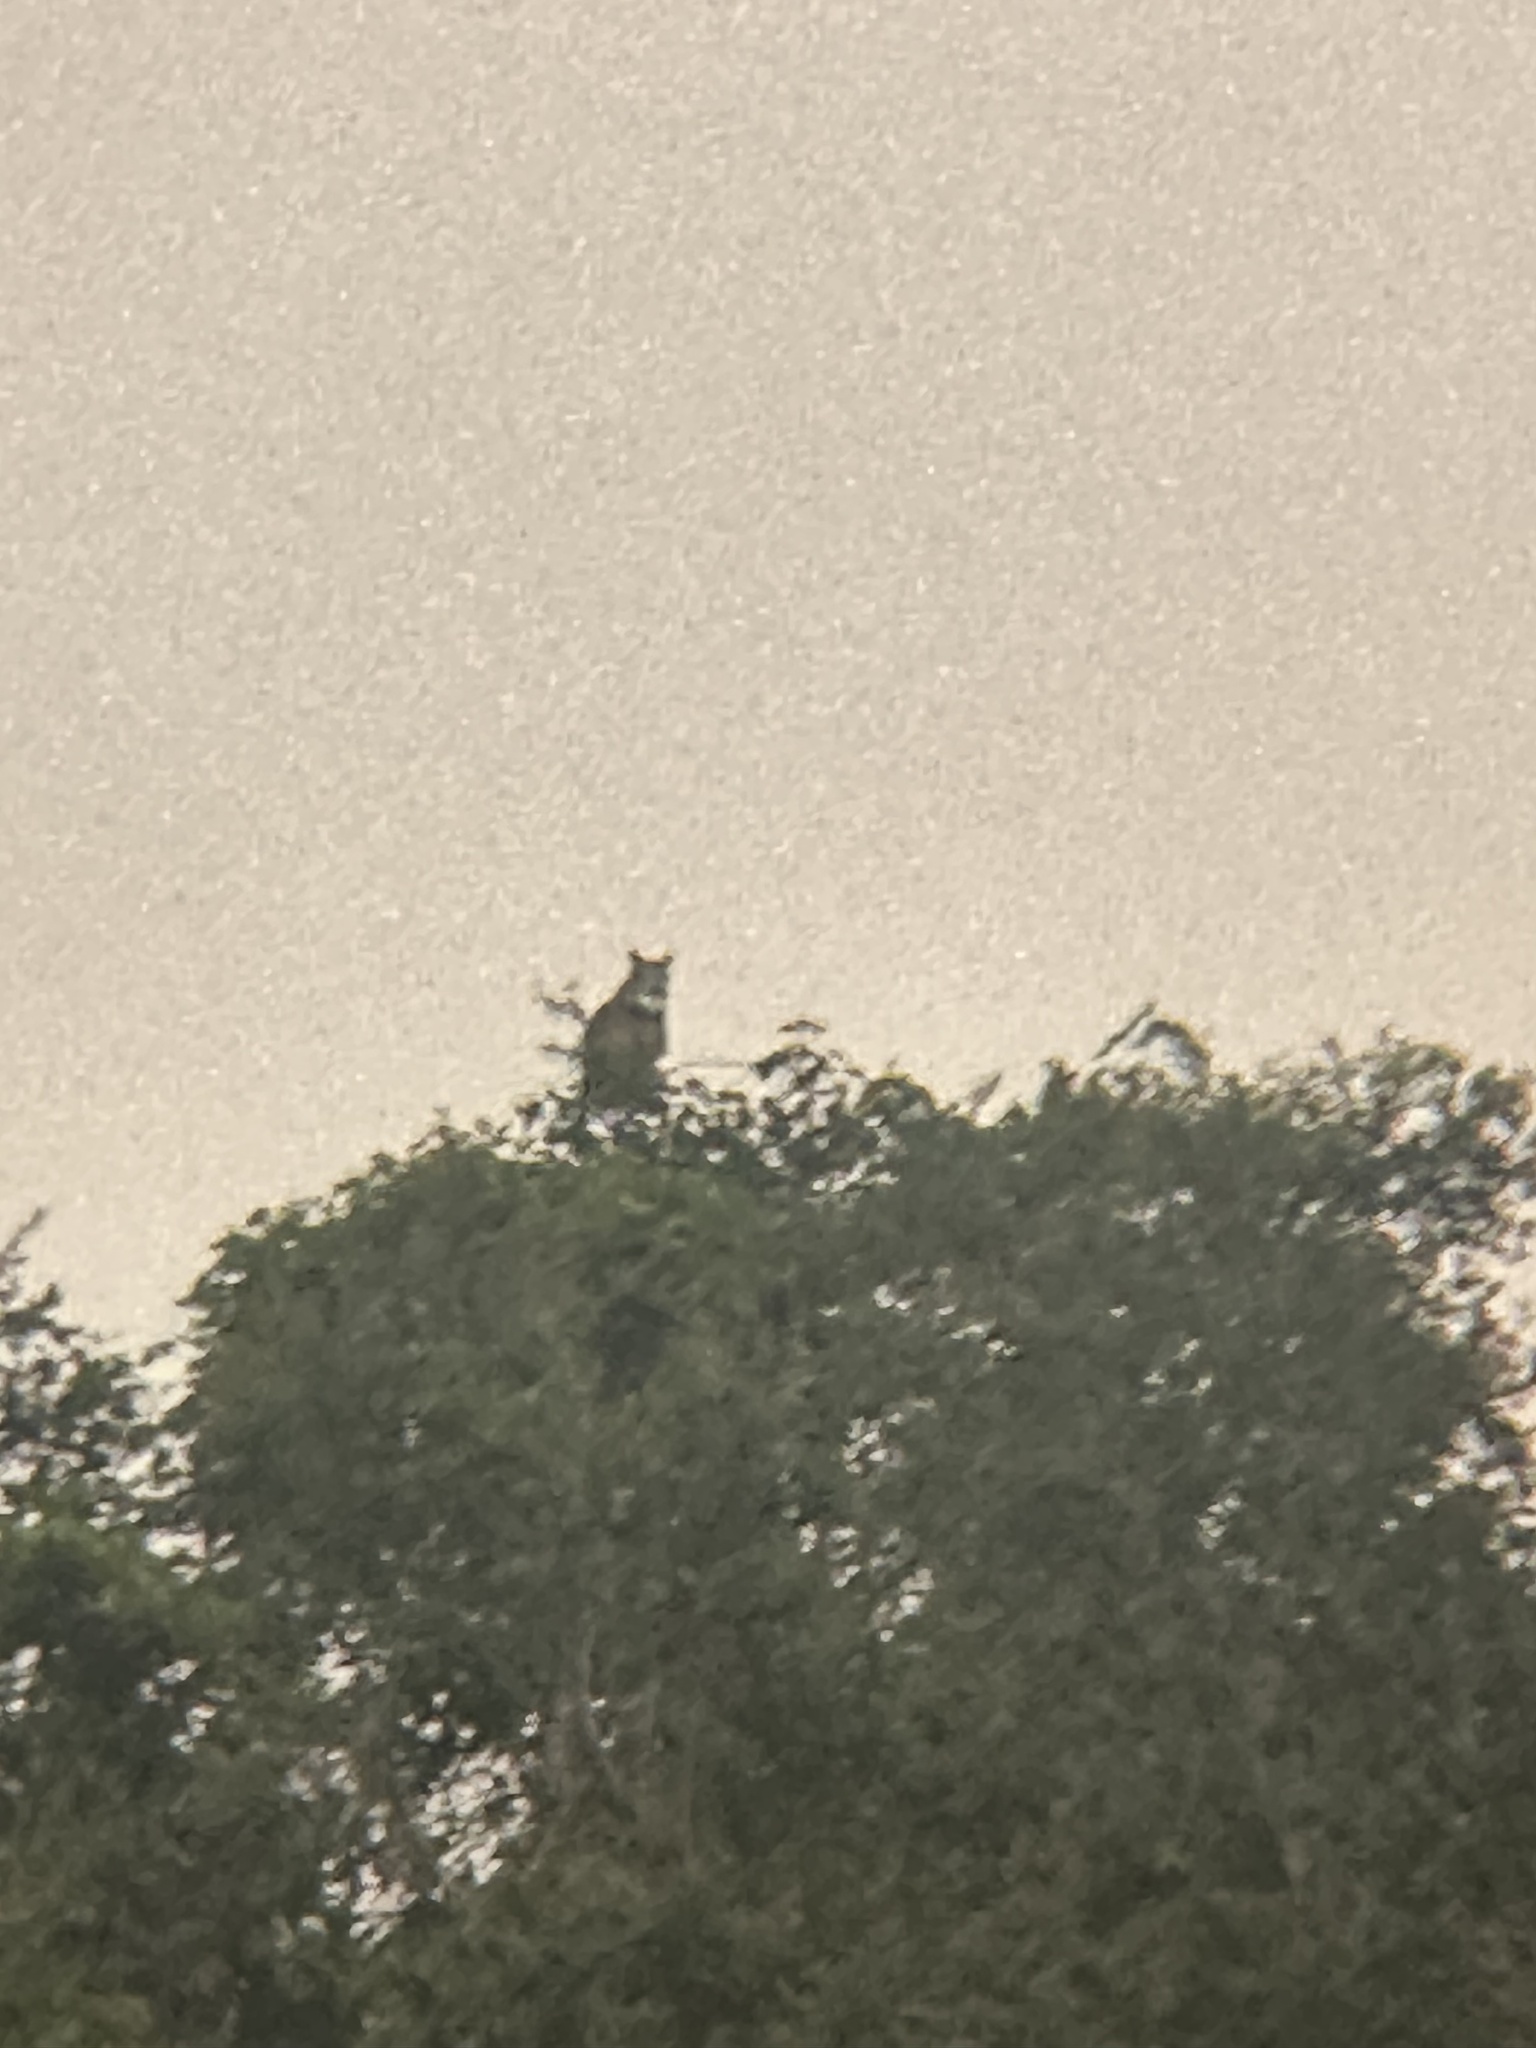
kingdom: Animalia
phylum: Chordata
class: Aves
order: Strigiformes
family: Strigidae
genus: Bubo
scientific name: Bubo virginianus
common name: Great horned owl
